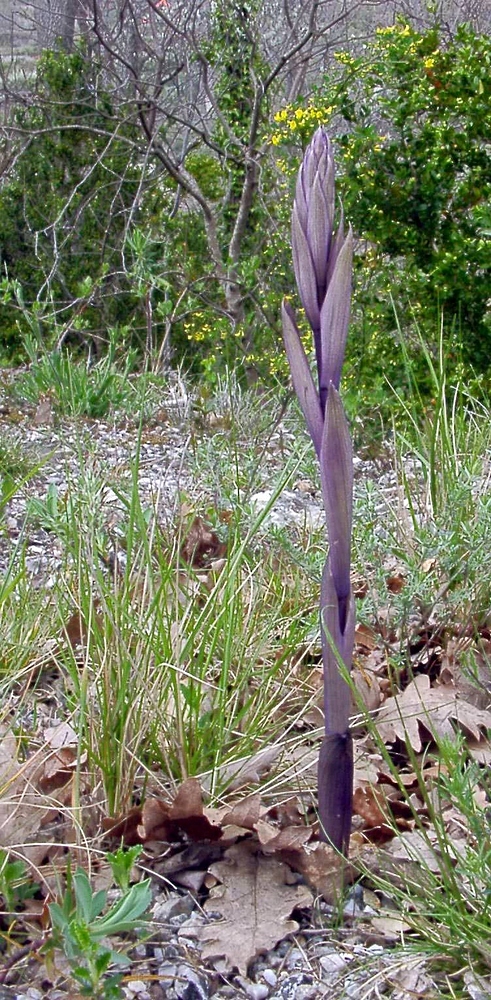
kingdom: Plantae
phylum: Tracheophyta
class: Liliopsida
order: Asparagales
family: Orchidaceae
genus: Limodorum
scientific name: Limodorum abortivum
